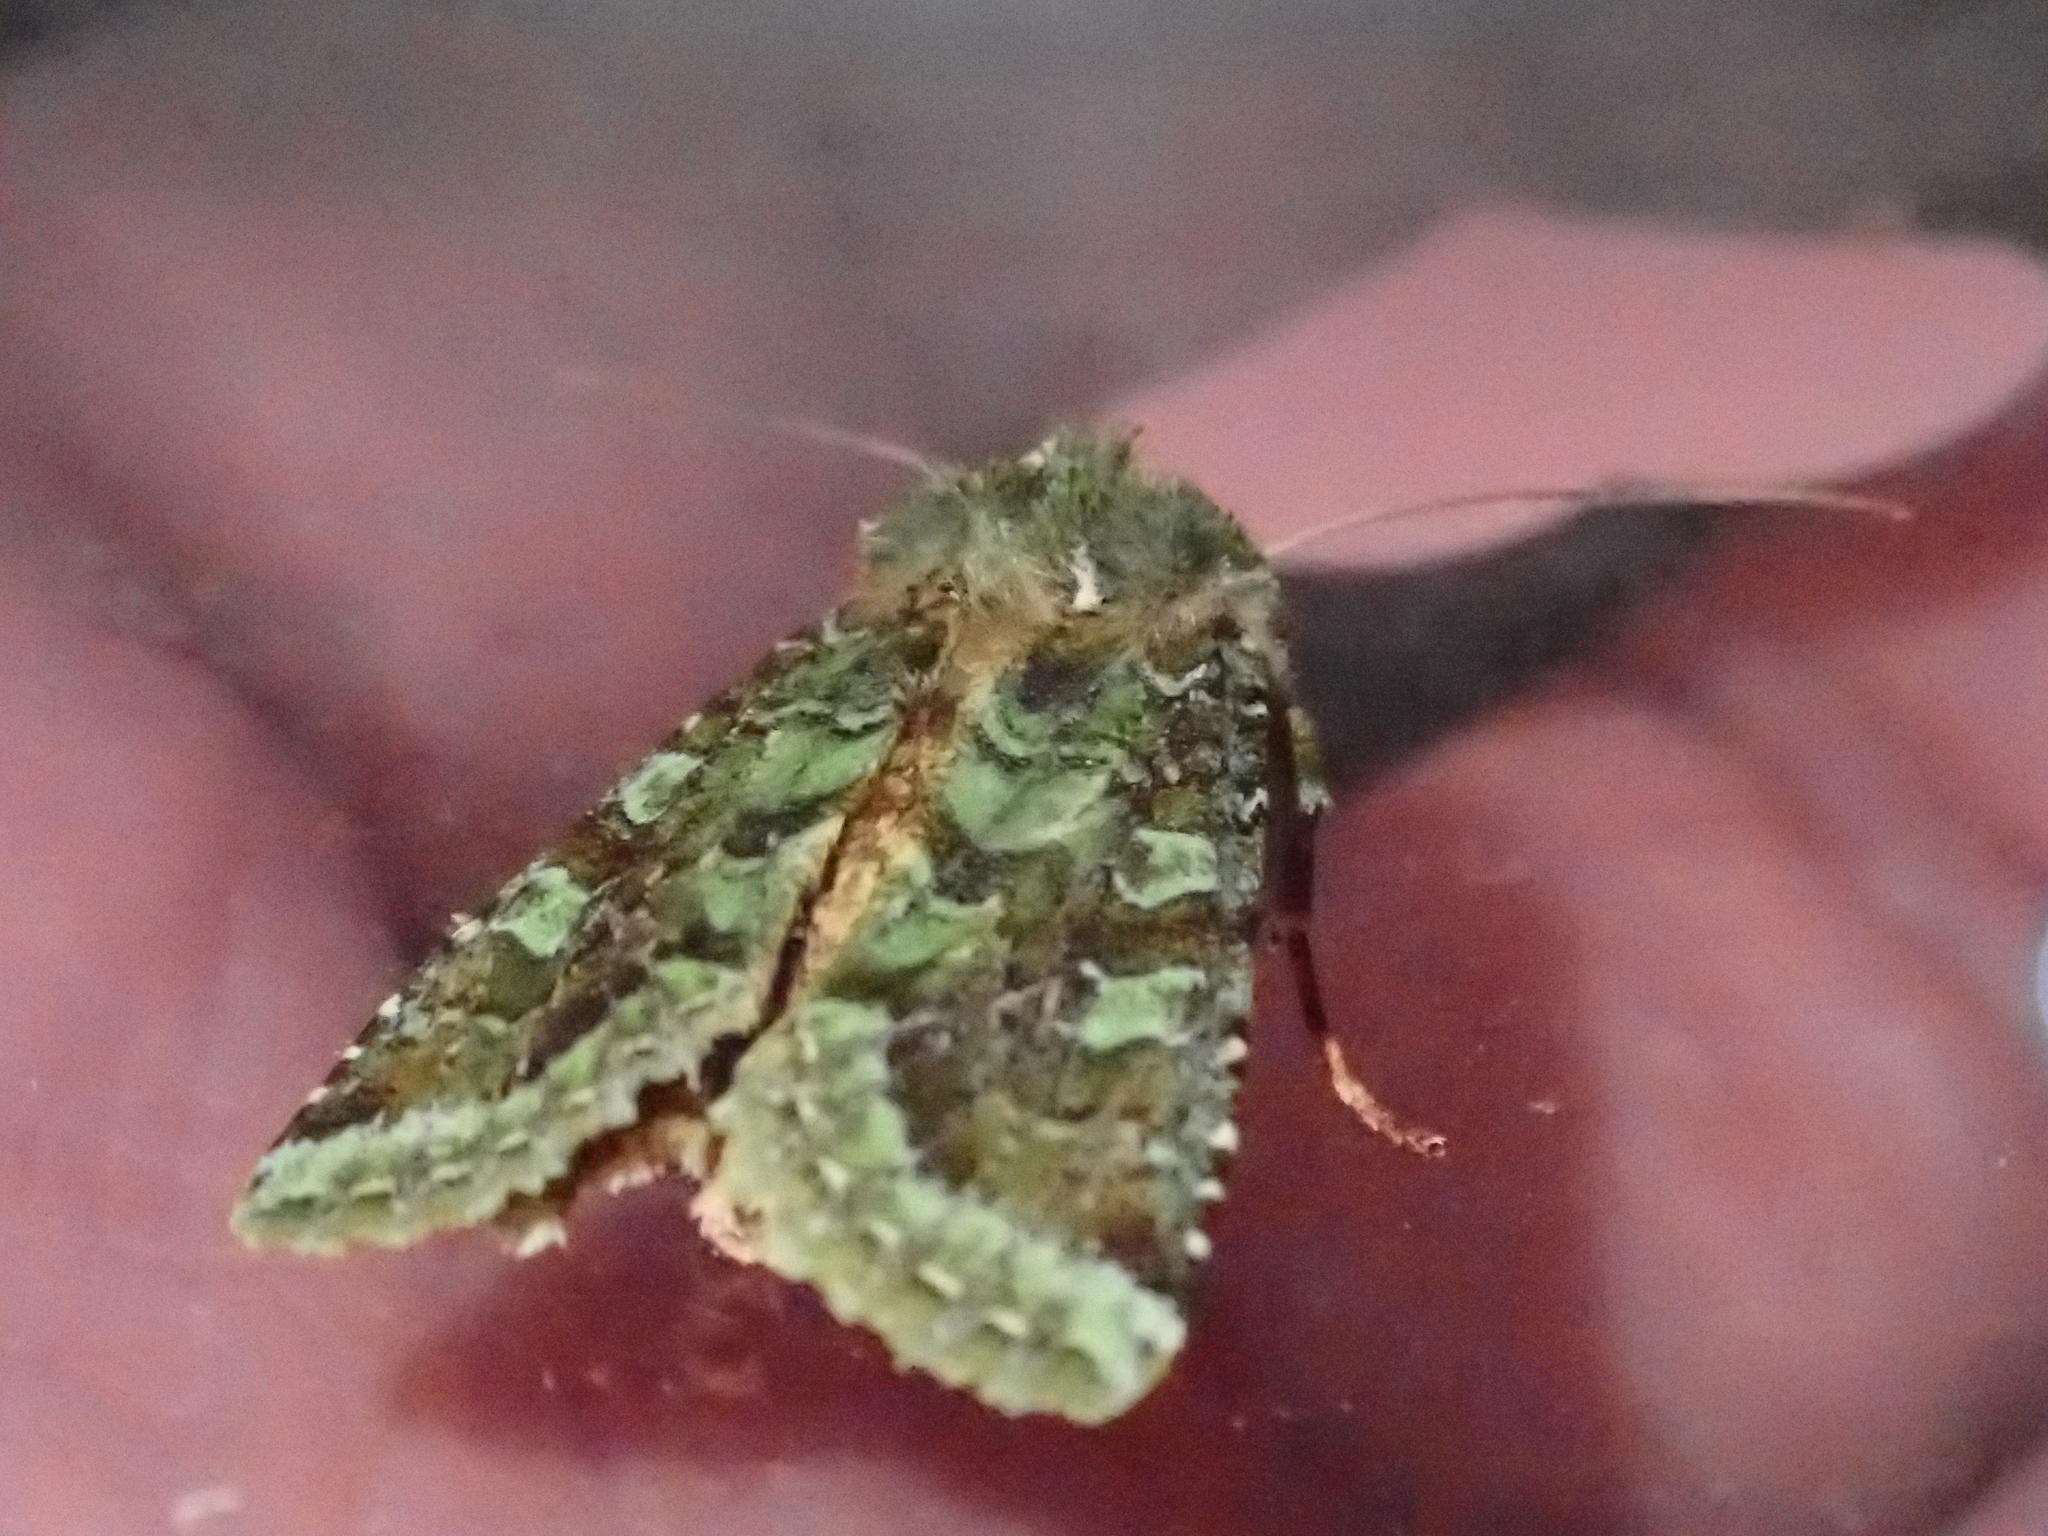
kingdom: Animalia
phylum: Arthropoda
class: Insecta
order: Lepidoptera
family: Noctuidae
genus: Feredayia
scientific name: Feredayia grammosa
